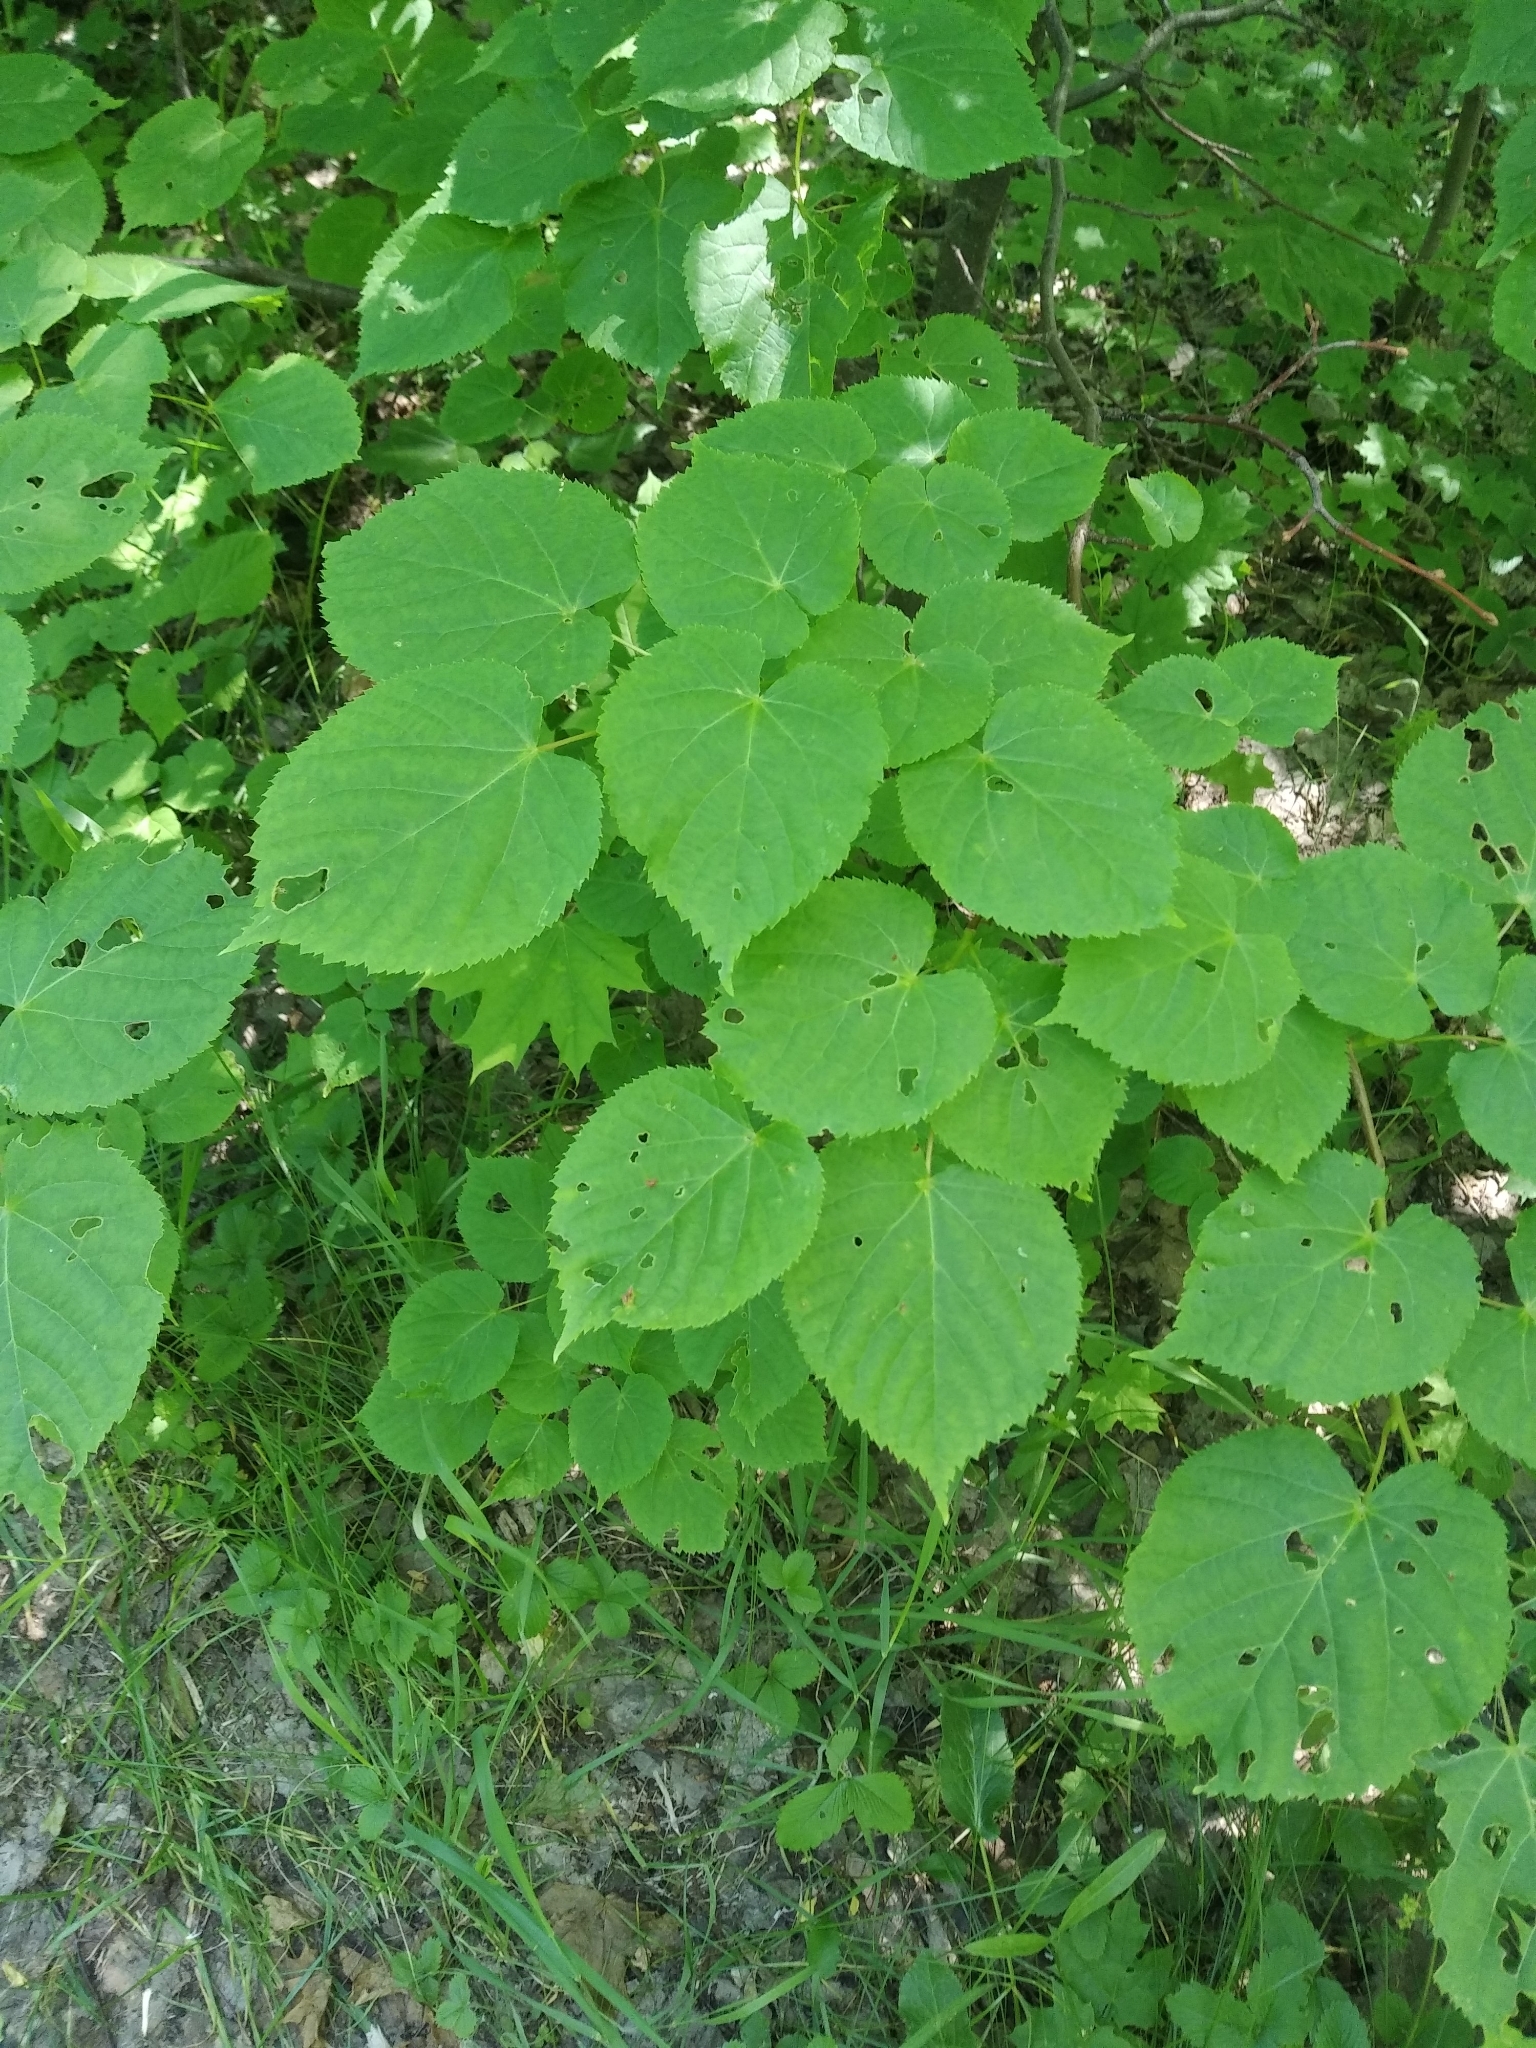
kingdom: Plantae
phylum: Tracheophyta
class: Magnoliopsida
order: Malvales
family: Malvaceae
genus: Tilia
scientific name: Tilia cordata
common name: Small-leaved lime
